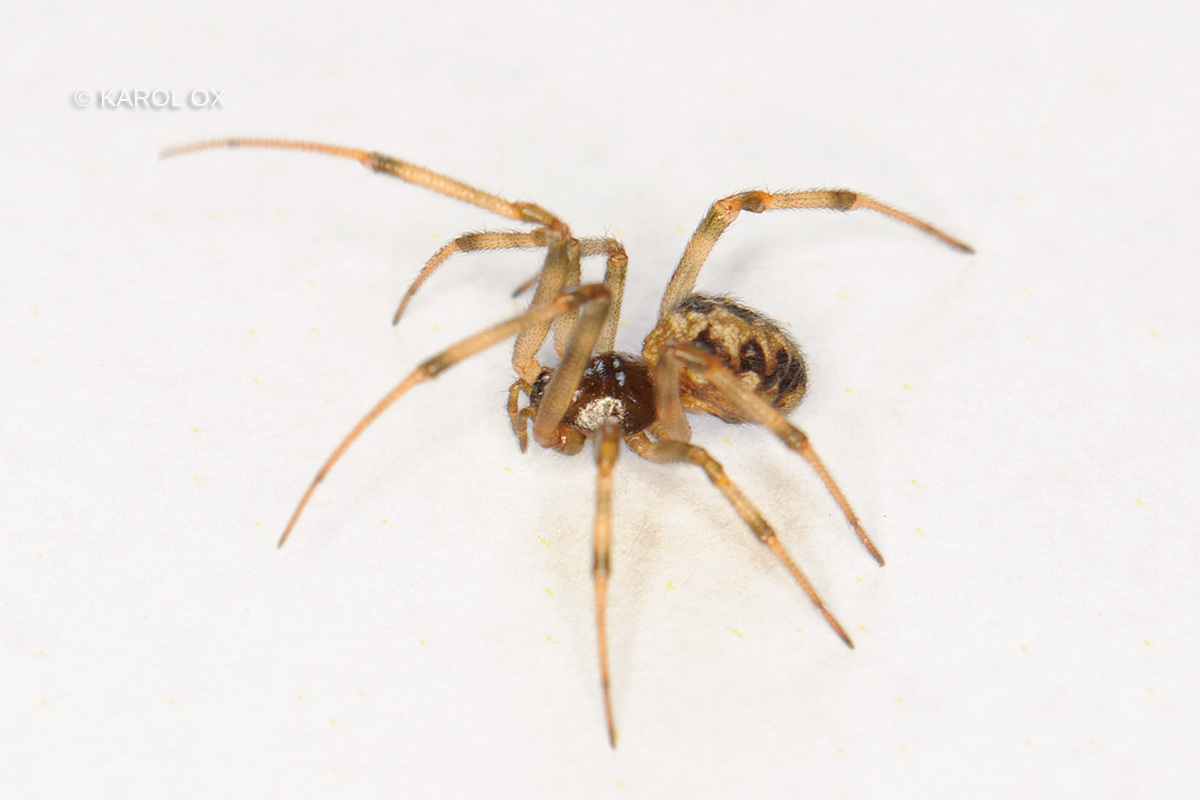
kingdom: Animalia
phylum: Arthropoda
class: Arachnida
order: Araneae
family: Theridiidae
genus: Steatoda
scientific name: Steatoda triangulosa
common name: Triangulate bud spider
